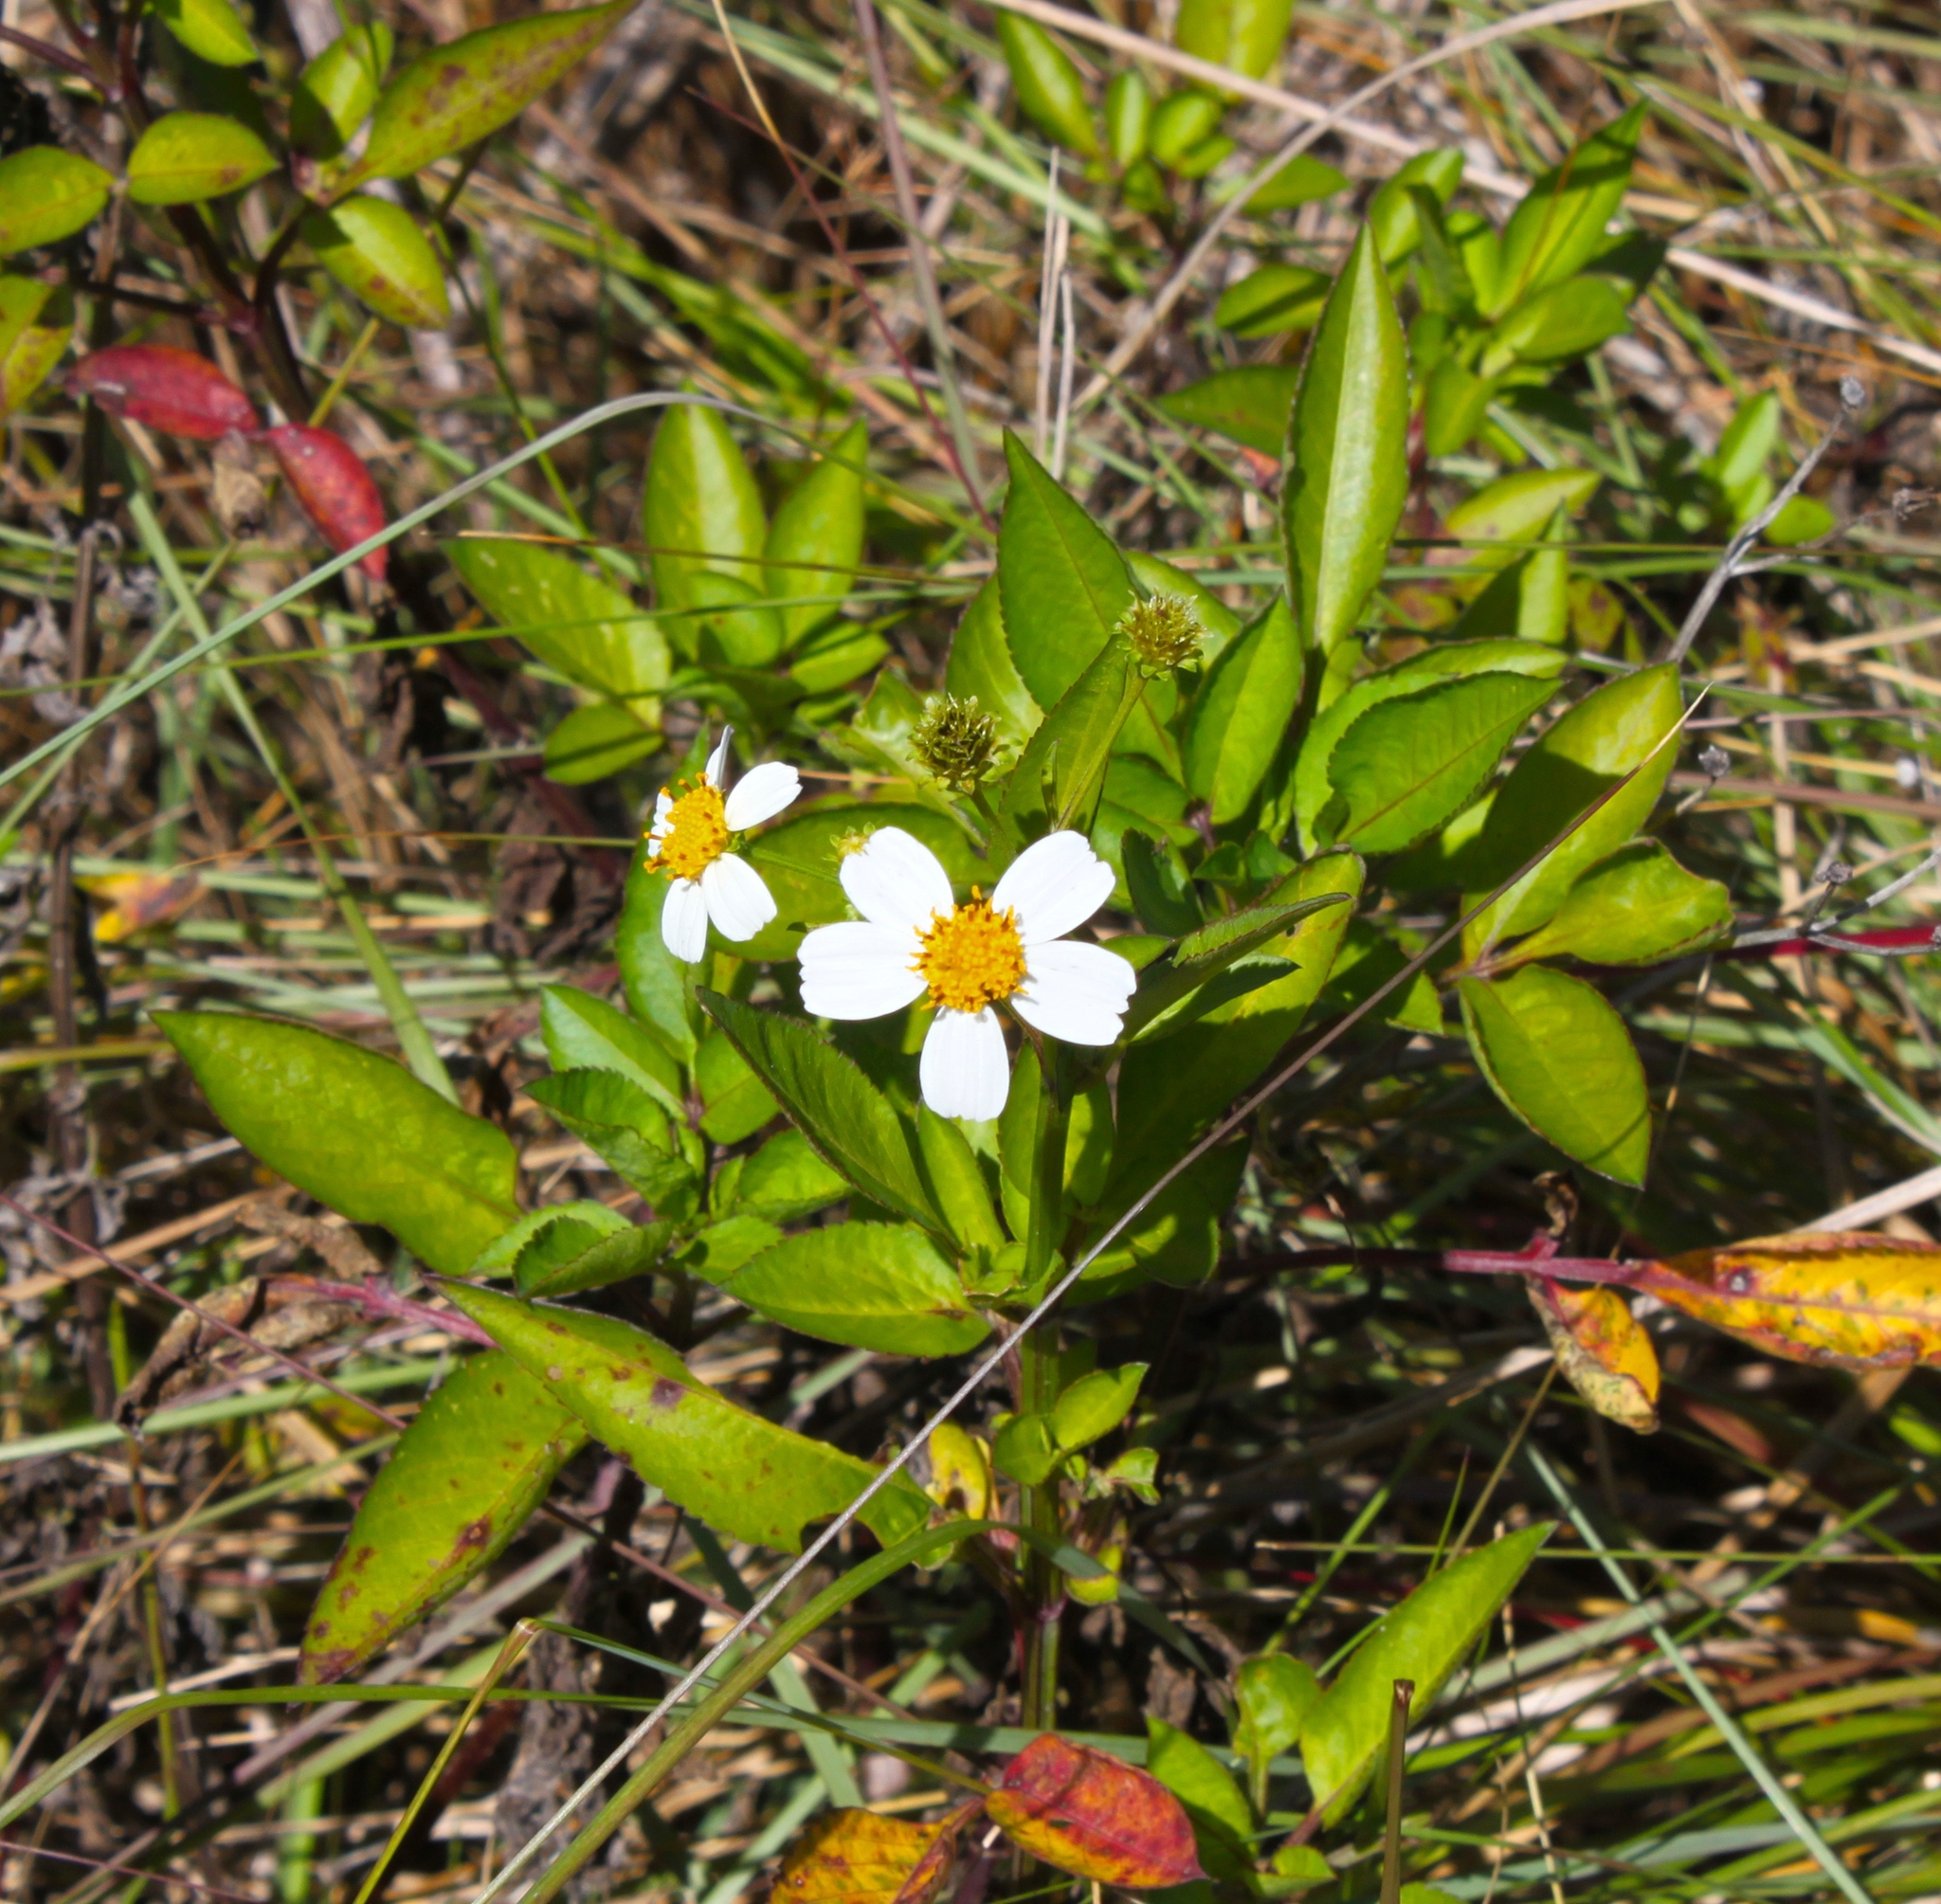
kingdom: Plantae
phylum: Tracheophyta
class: Magnoliopsida
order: Asterales
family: Asteraceae
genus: Bidens
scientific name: Bidens alba
